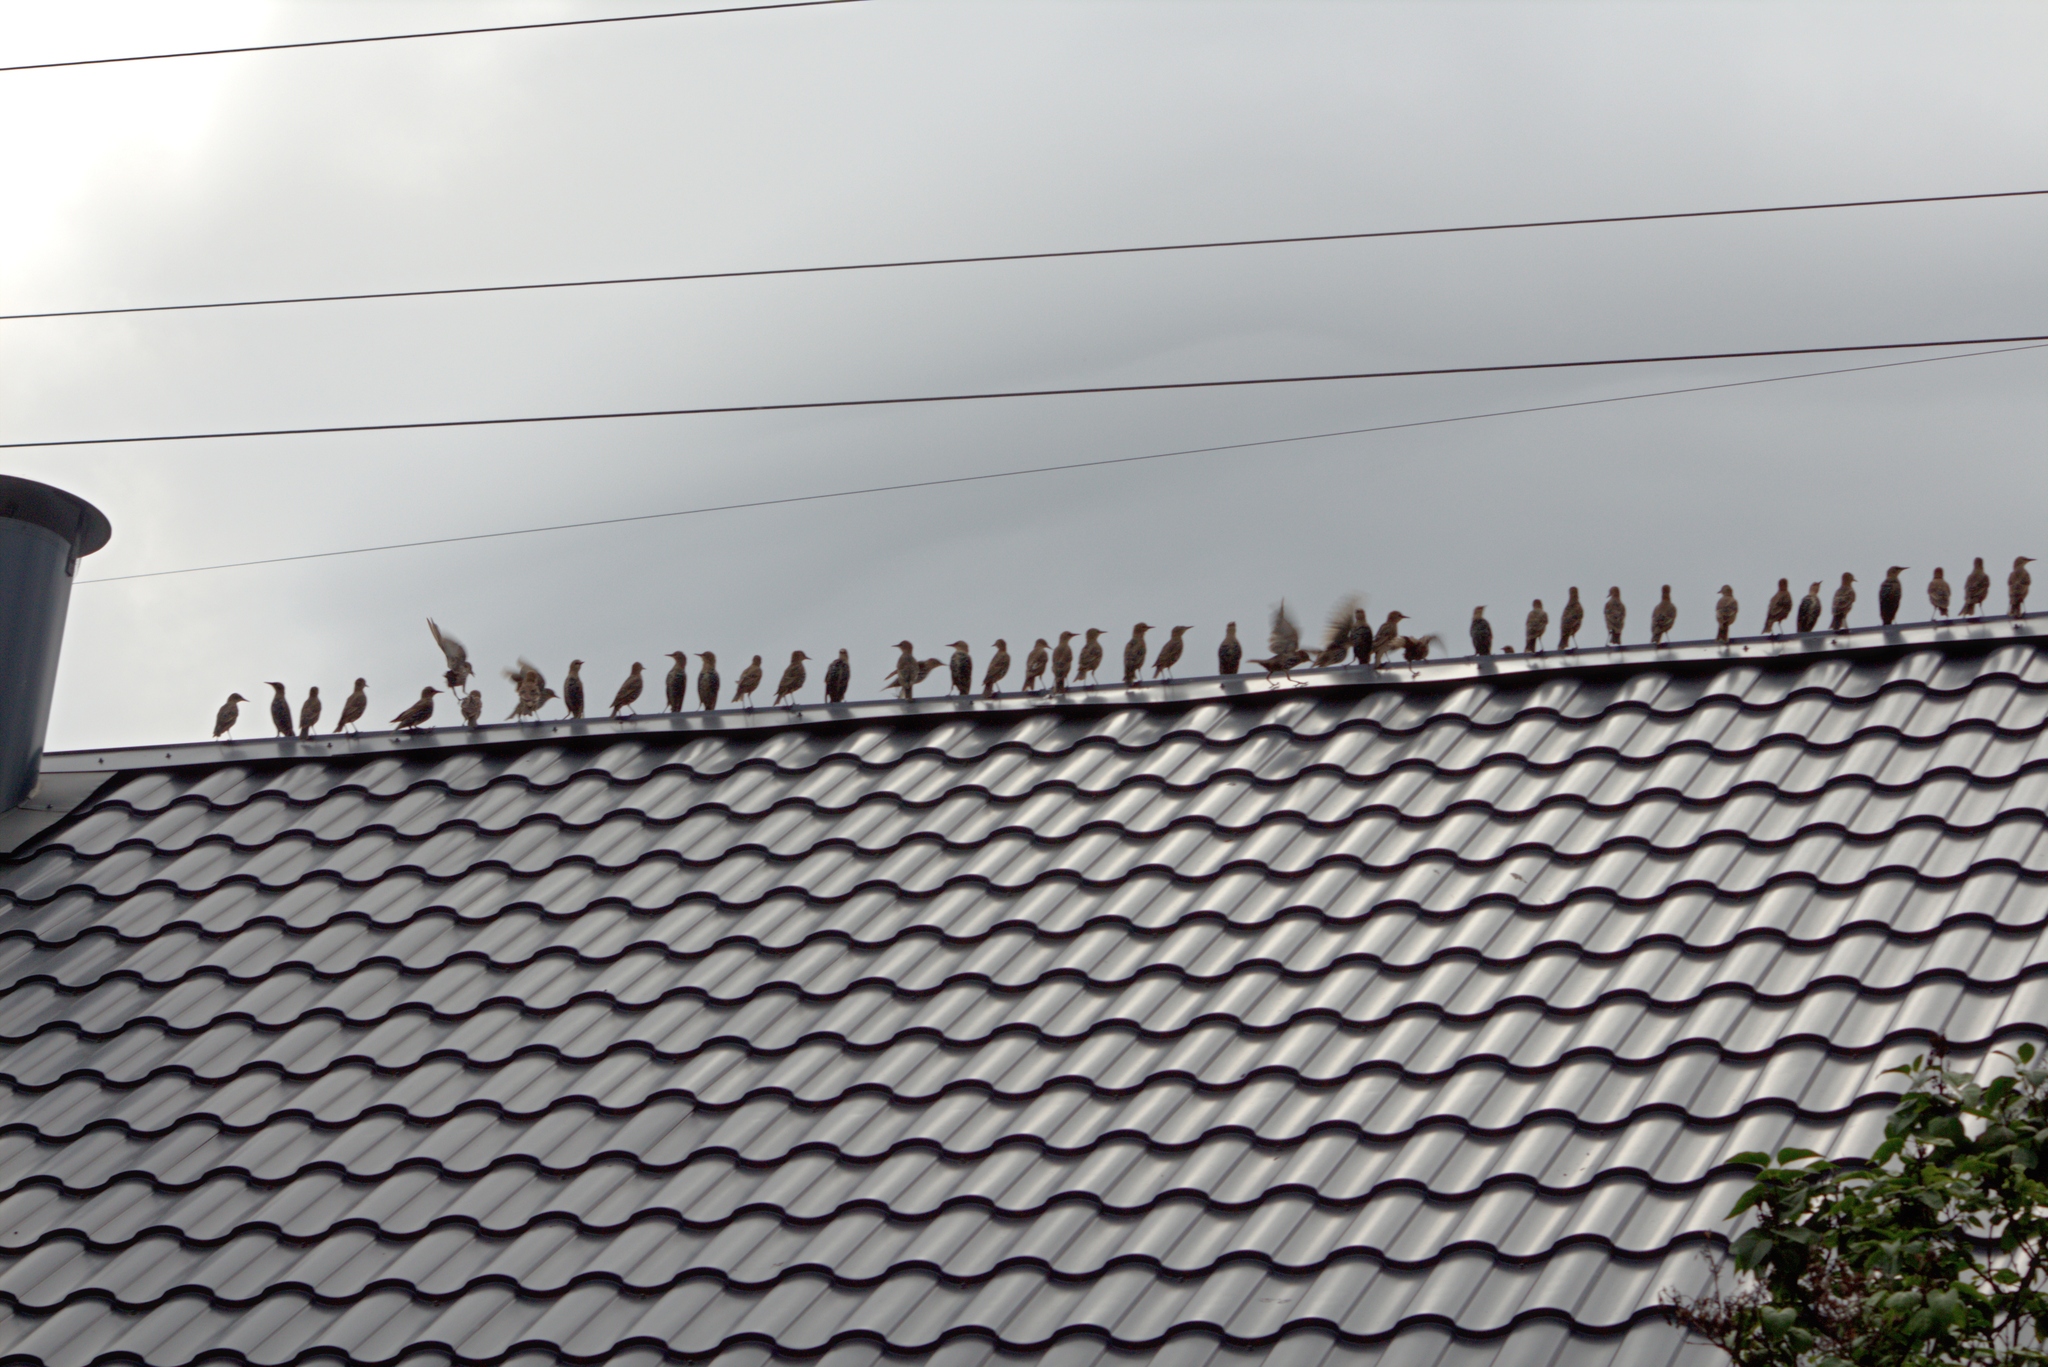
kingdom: Animalia
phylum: Chordata
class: Aves
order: Passeriformes
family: Sturnidae
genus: Sturnus
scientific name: Sturnus vulgaris
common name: Common starling
